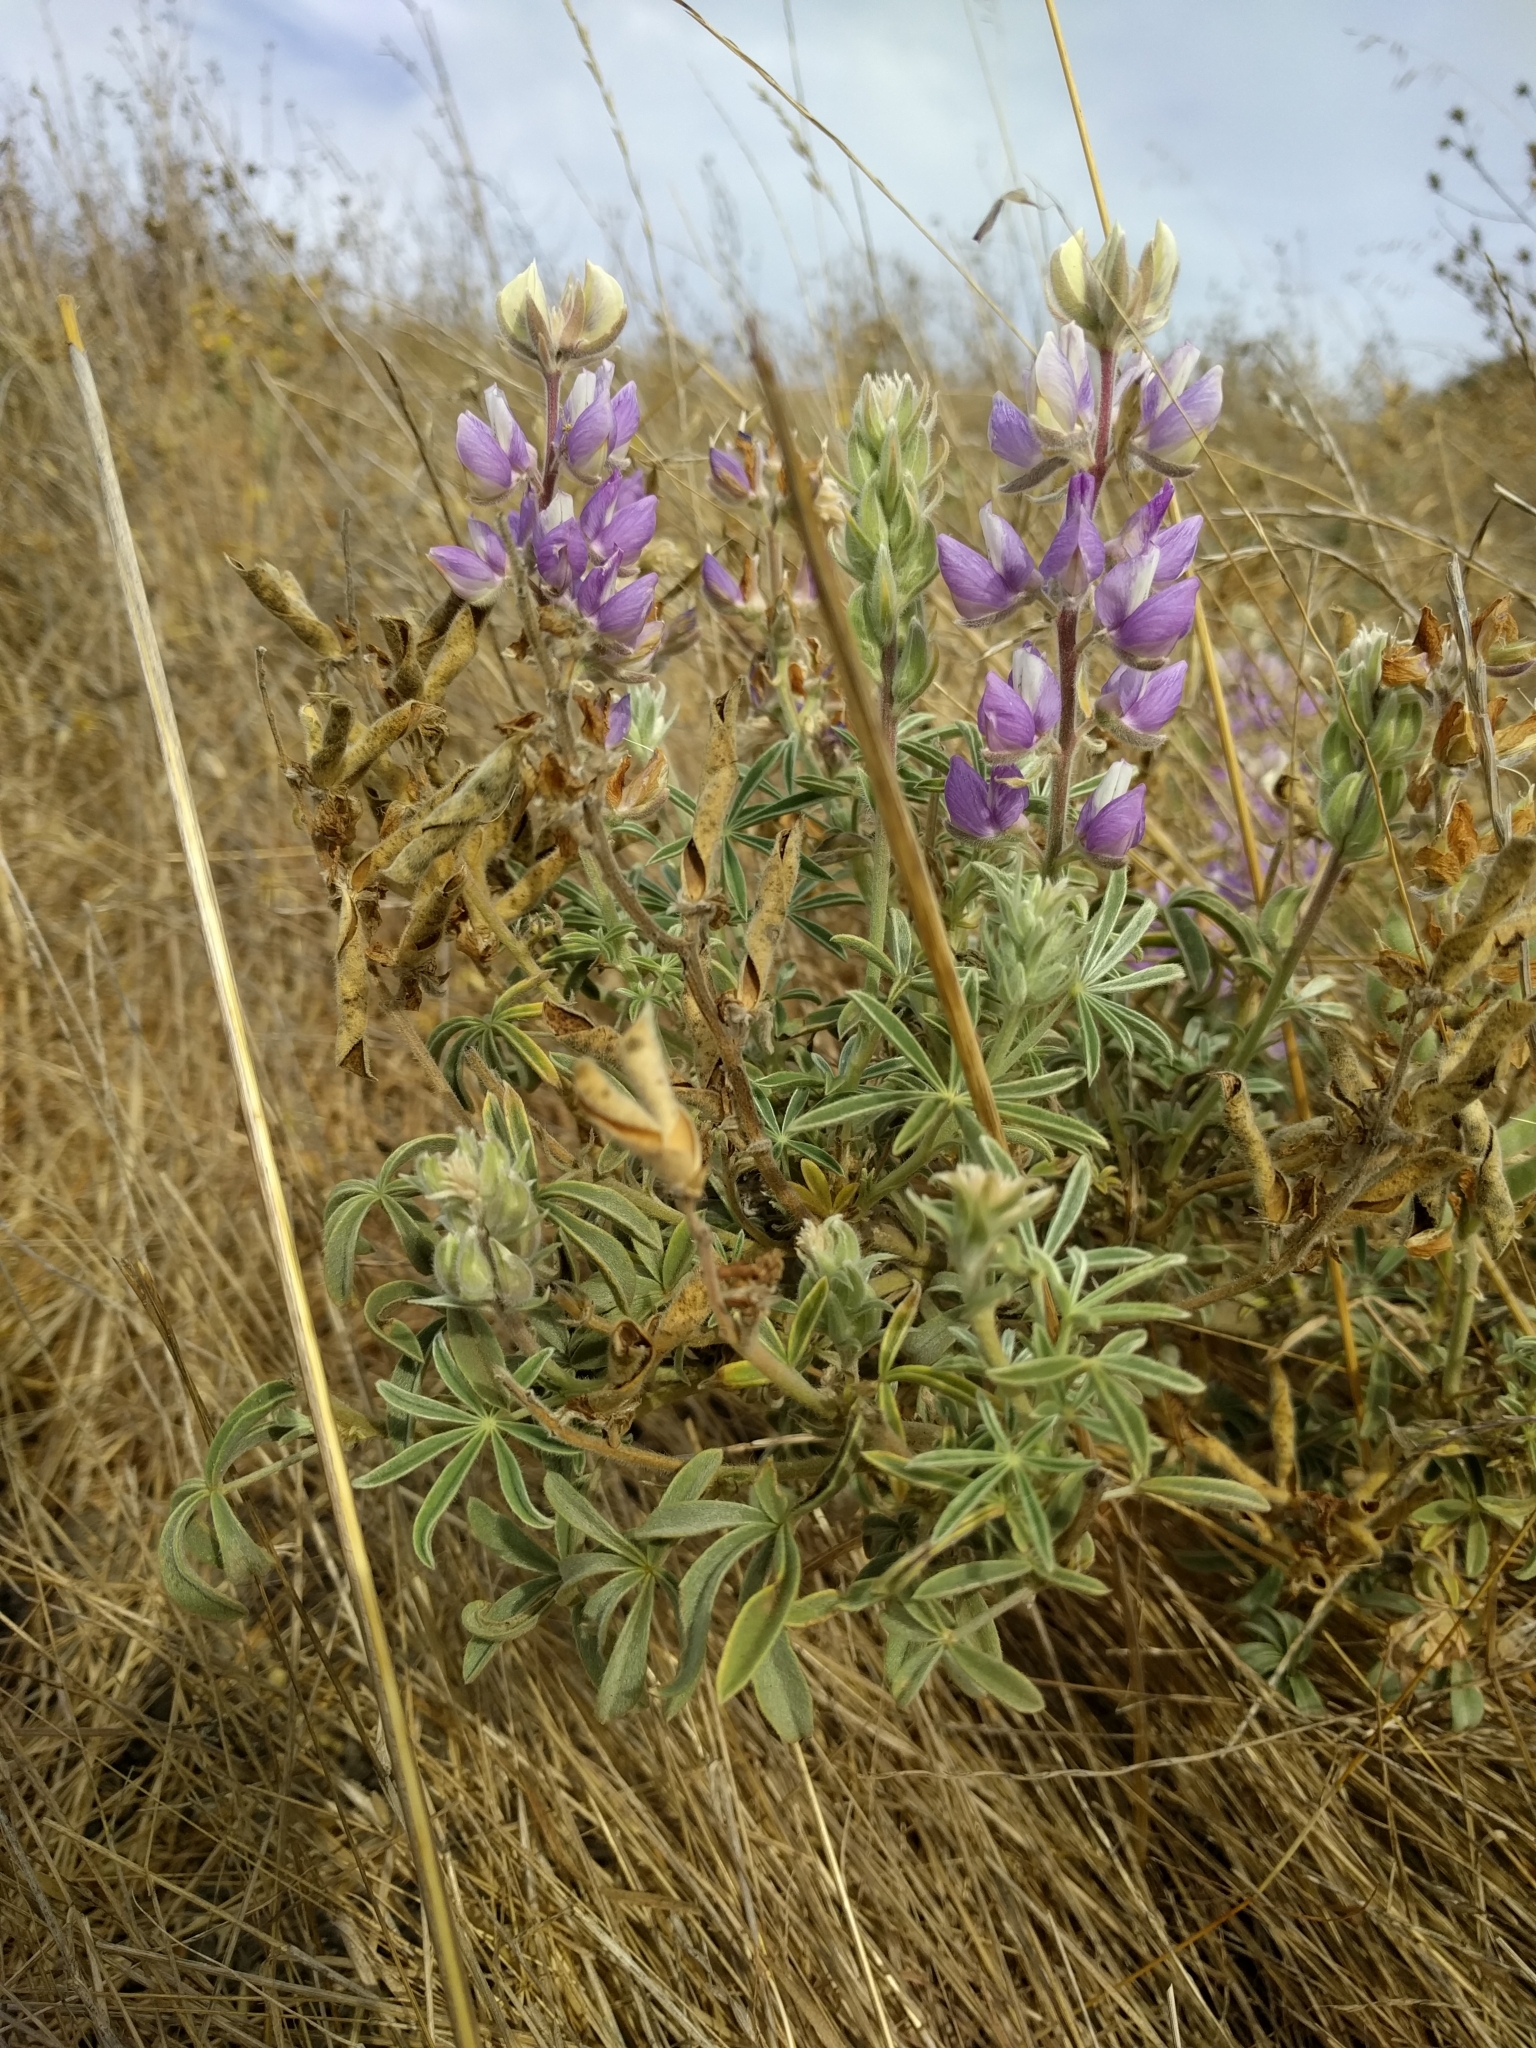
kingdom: Plantae
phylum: Tracheophyta
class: Magnoliopsida
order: Fabales
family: Fabaceae
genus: Lupinus
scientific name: Lupinus formosus
